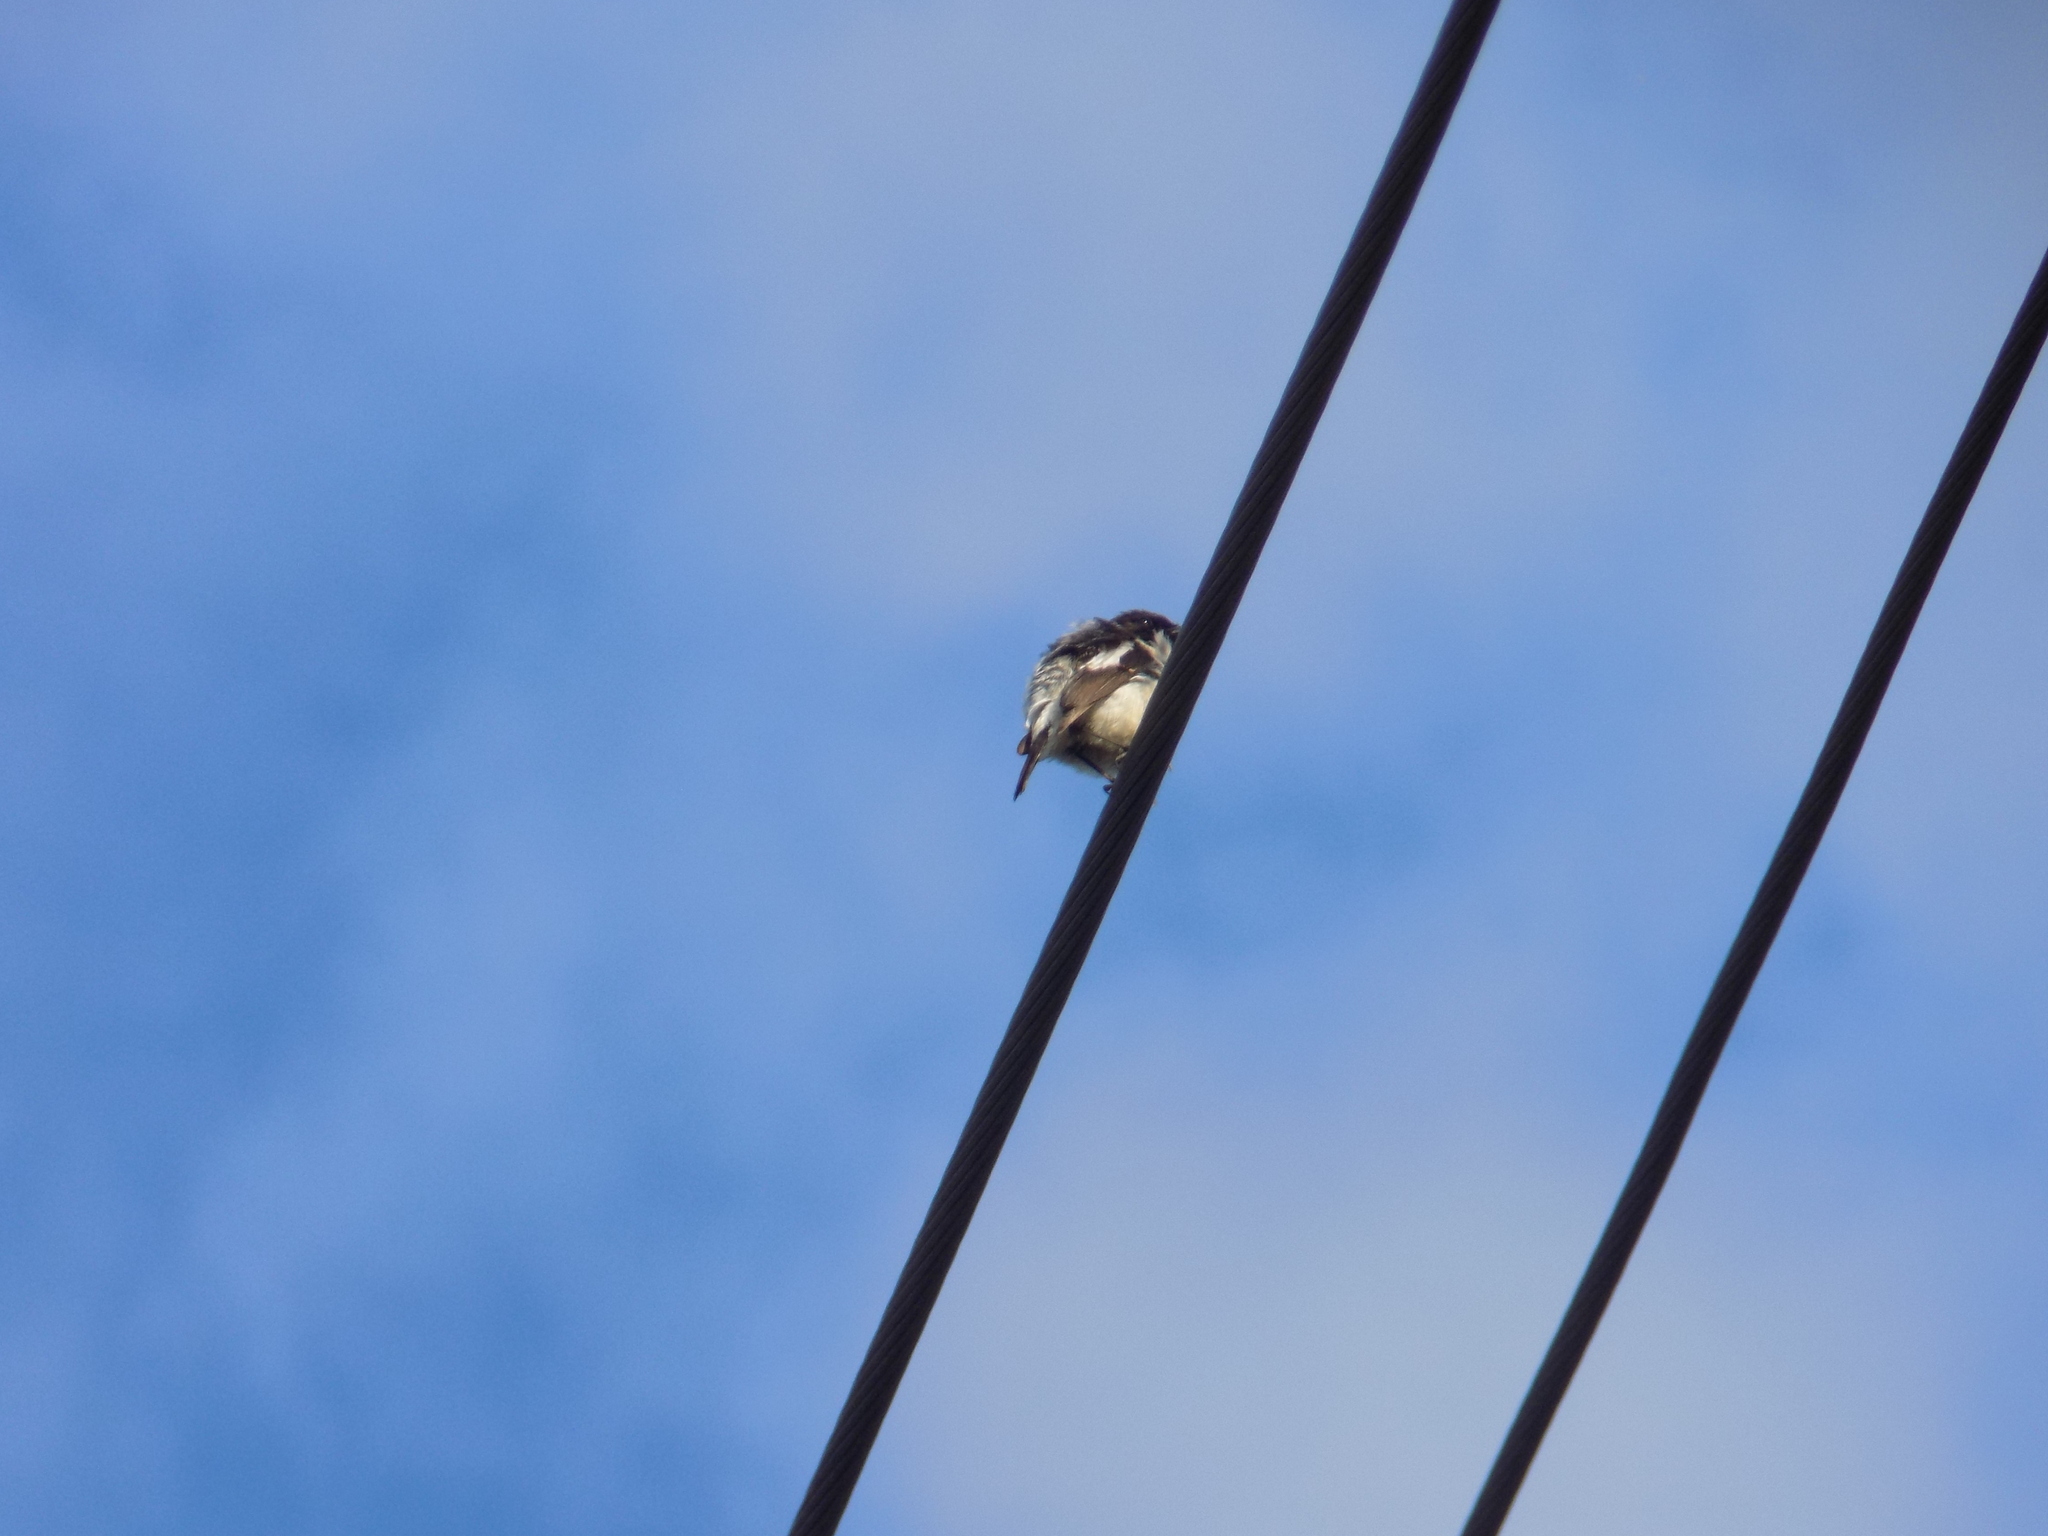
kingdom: Animalia
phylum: Chordata
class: Aves
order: Passeriformes
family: Muscicapidae
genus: Ficedula
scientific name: Ficedula hypoleuca
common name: European pied flycatcher
